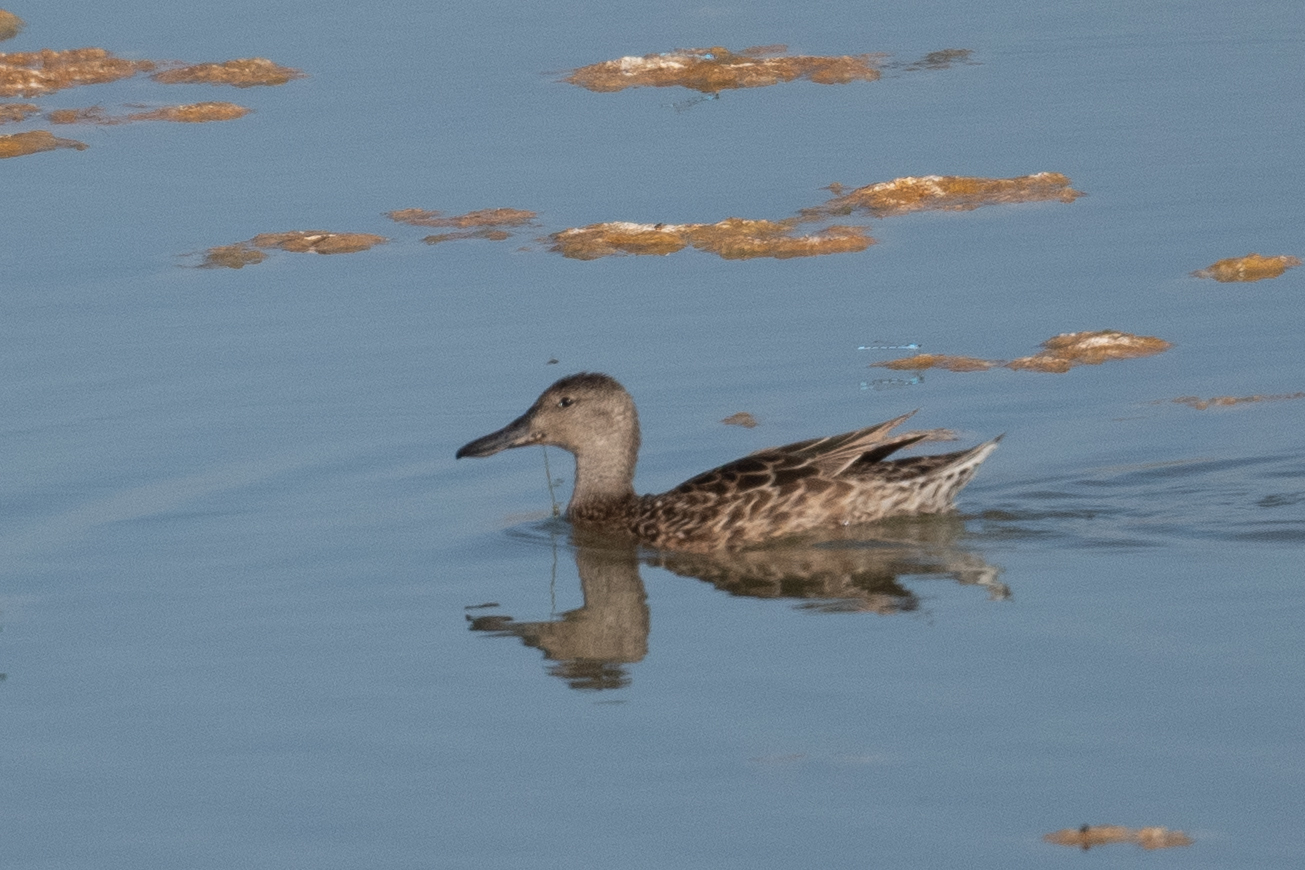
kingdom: Animalia
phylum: Chordata
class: Aves
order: Anseriformes
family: Anatidae
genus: Spatula
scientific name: Spatula cyanoptera
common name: Cinnamon teal
